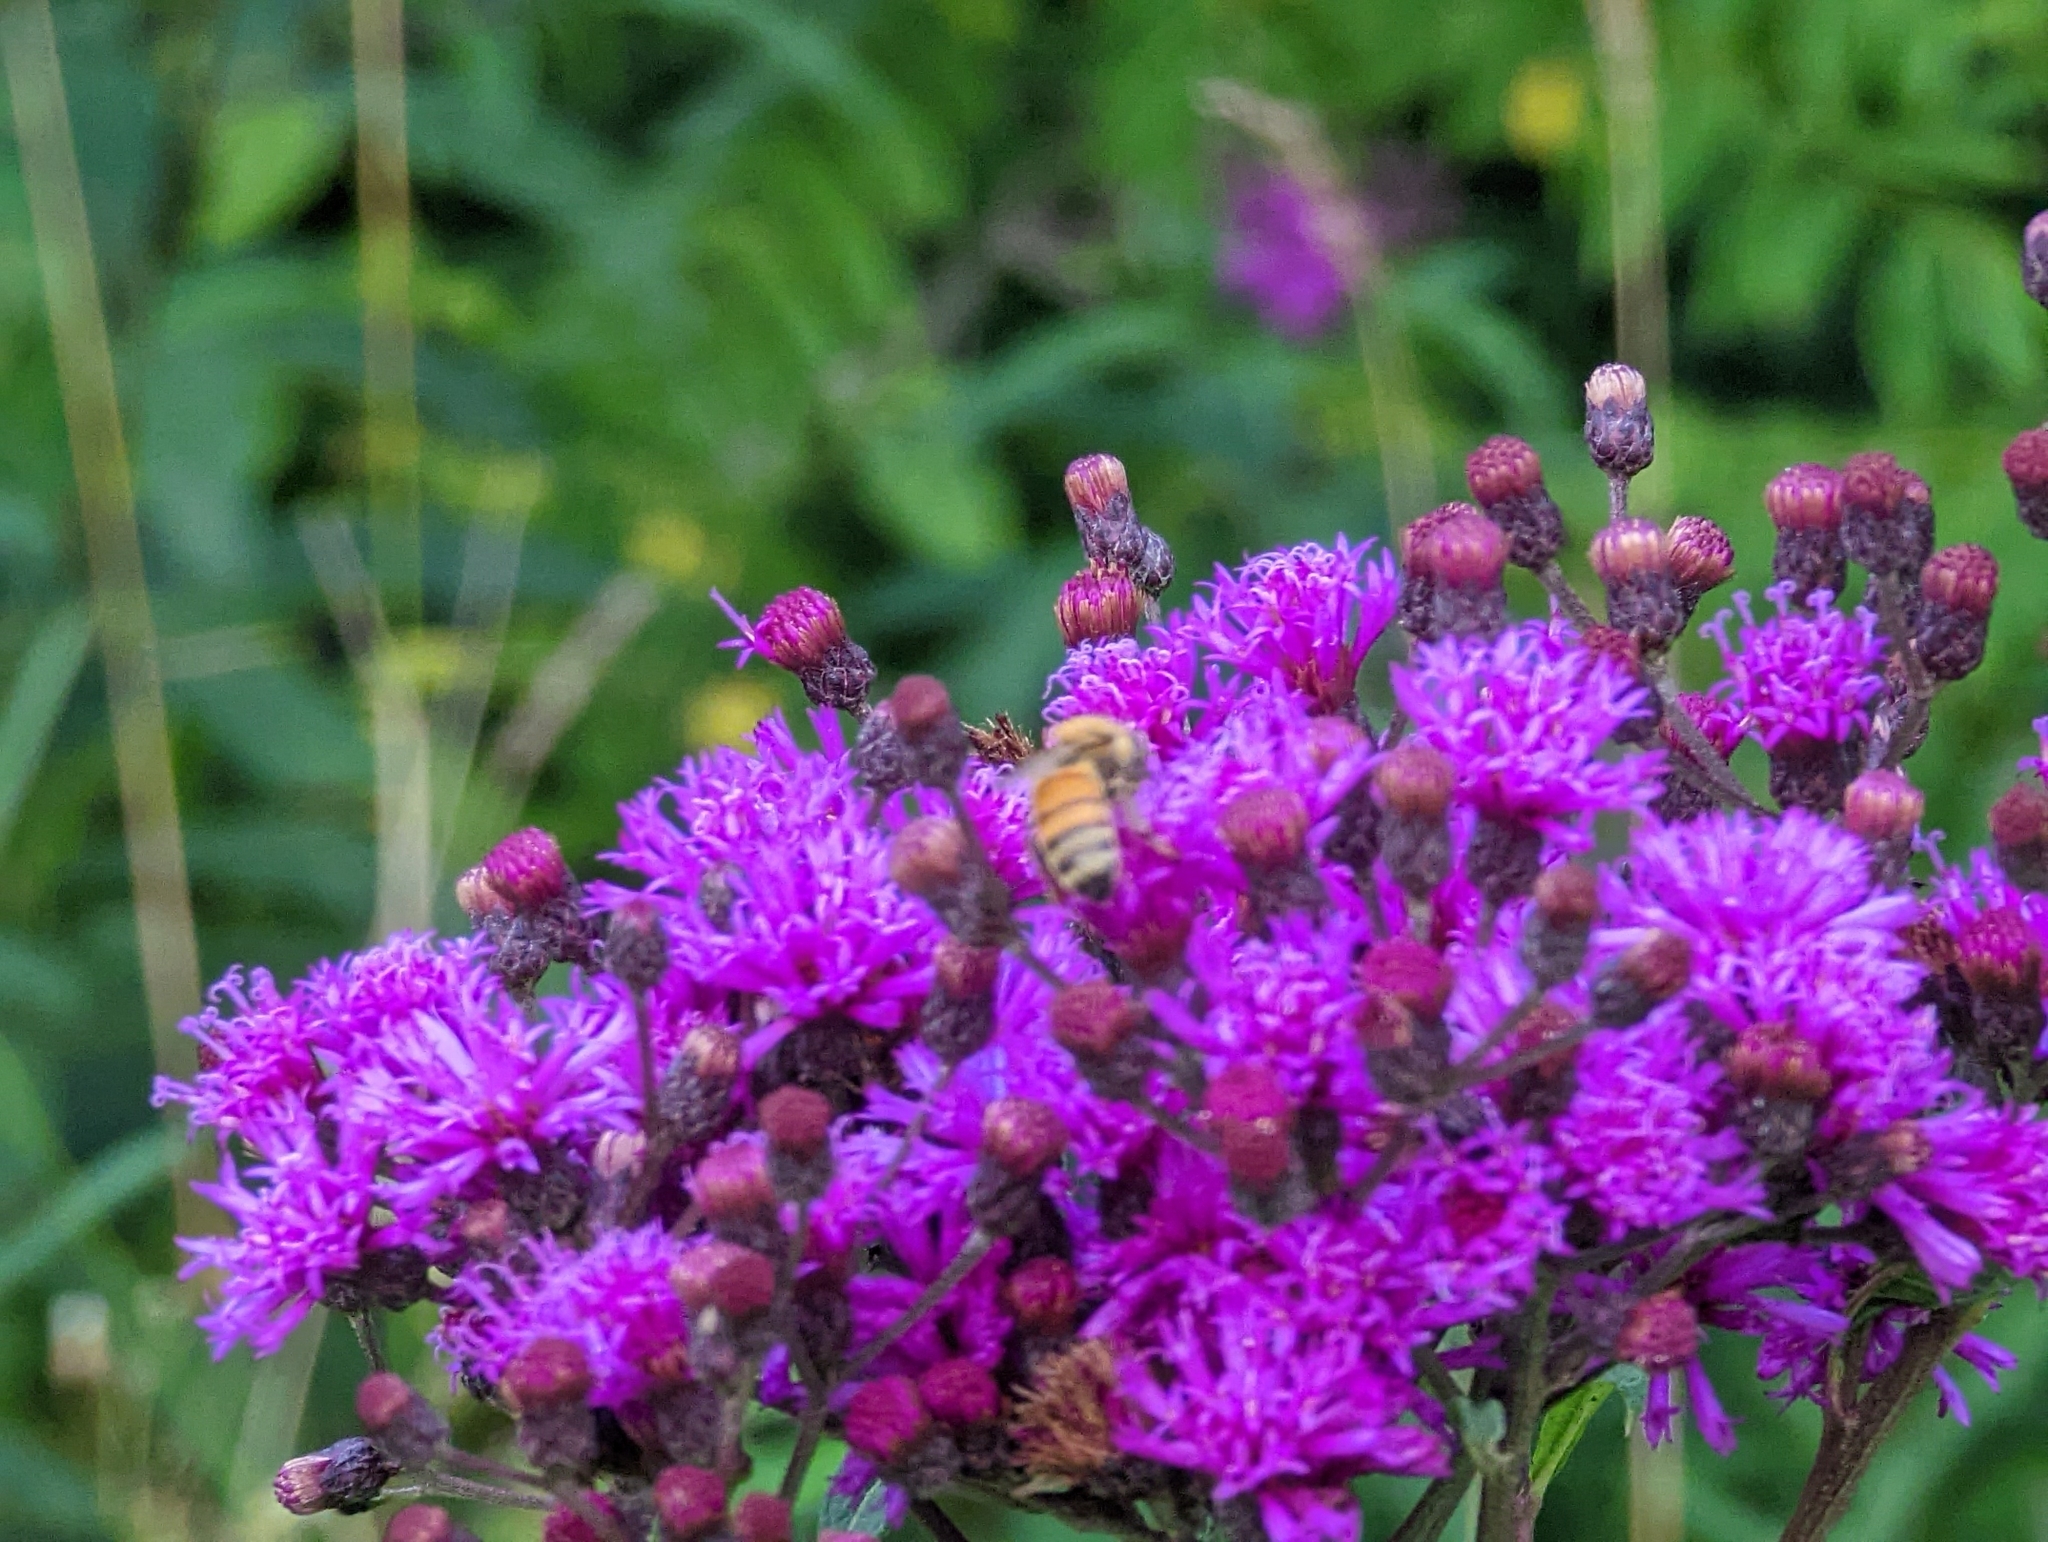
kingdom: Animalia
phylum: Arthropoda
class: Insecta
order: Hymenoptera
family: Apidae
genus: Apis
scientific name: Apis mellifera
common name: Honey bee
